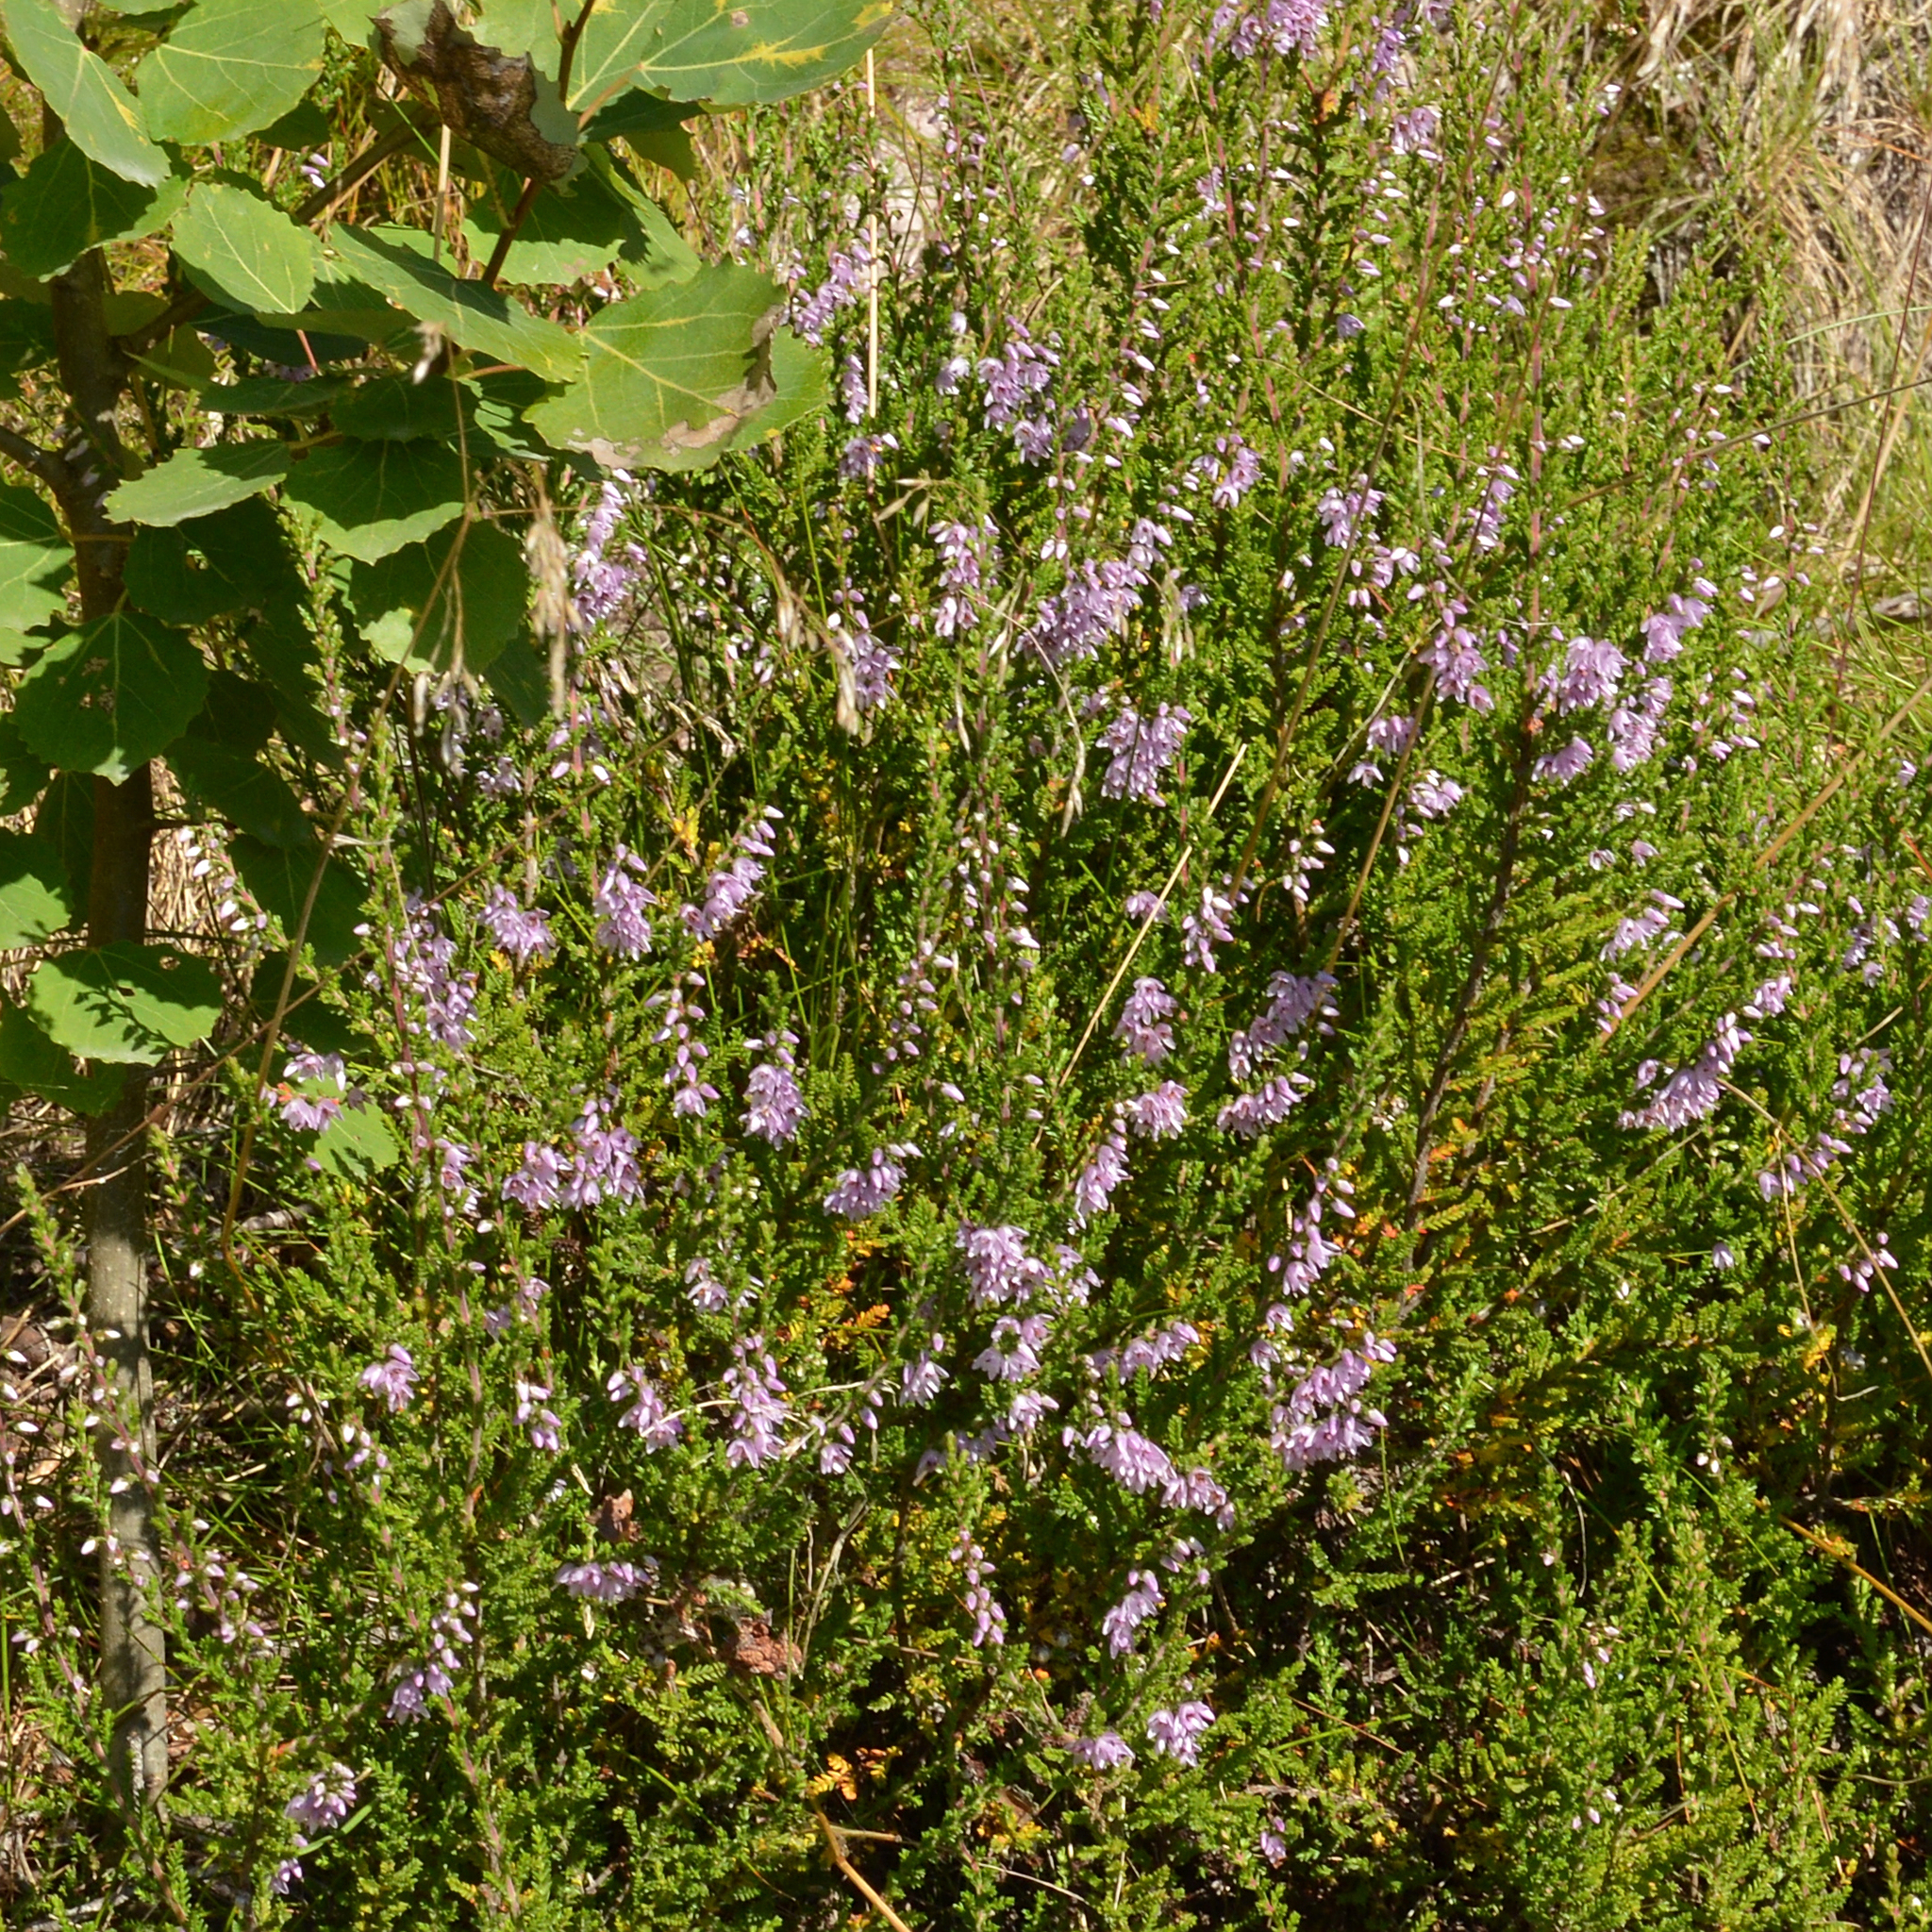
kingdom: Plantae
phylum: Tracheophyta
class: Magnoliopsida
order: Ericales
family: Ericaceae
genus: Calluna
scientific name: Calluna vulgaris
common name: Heather
